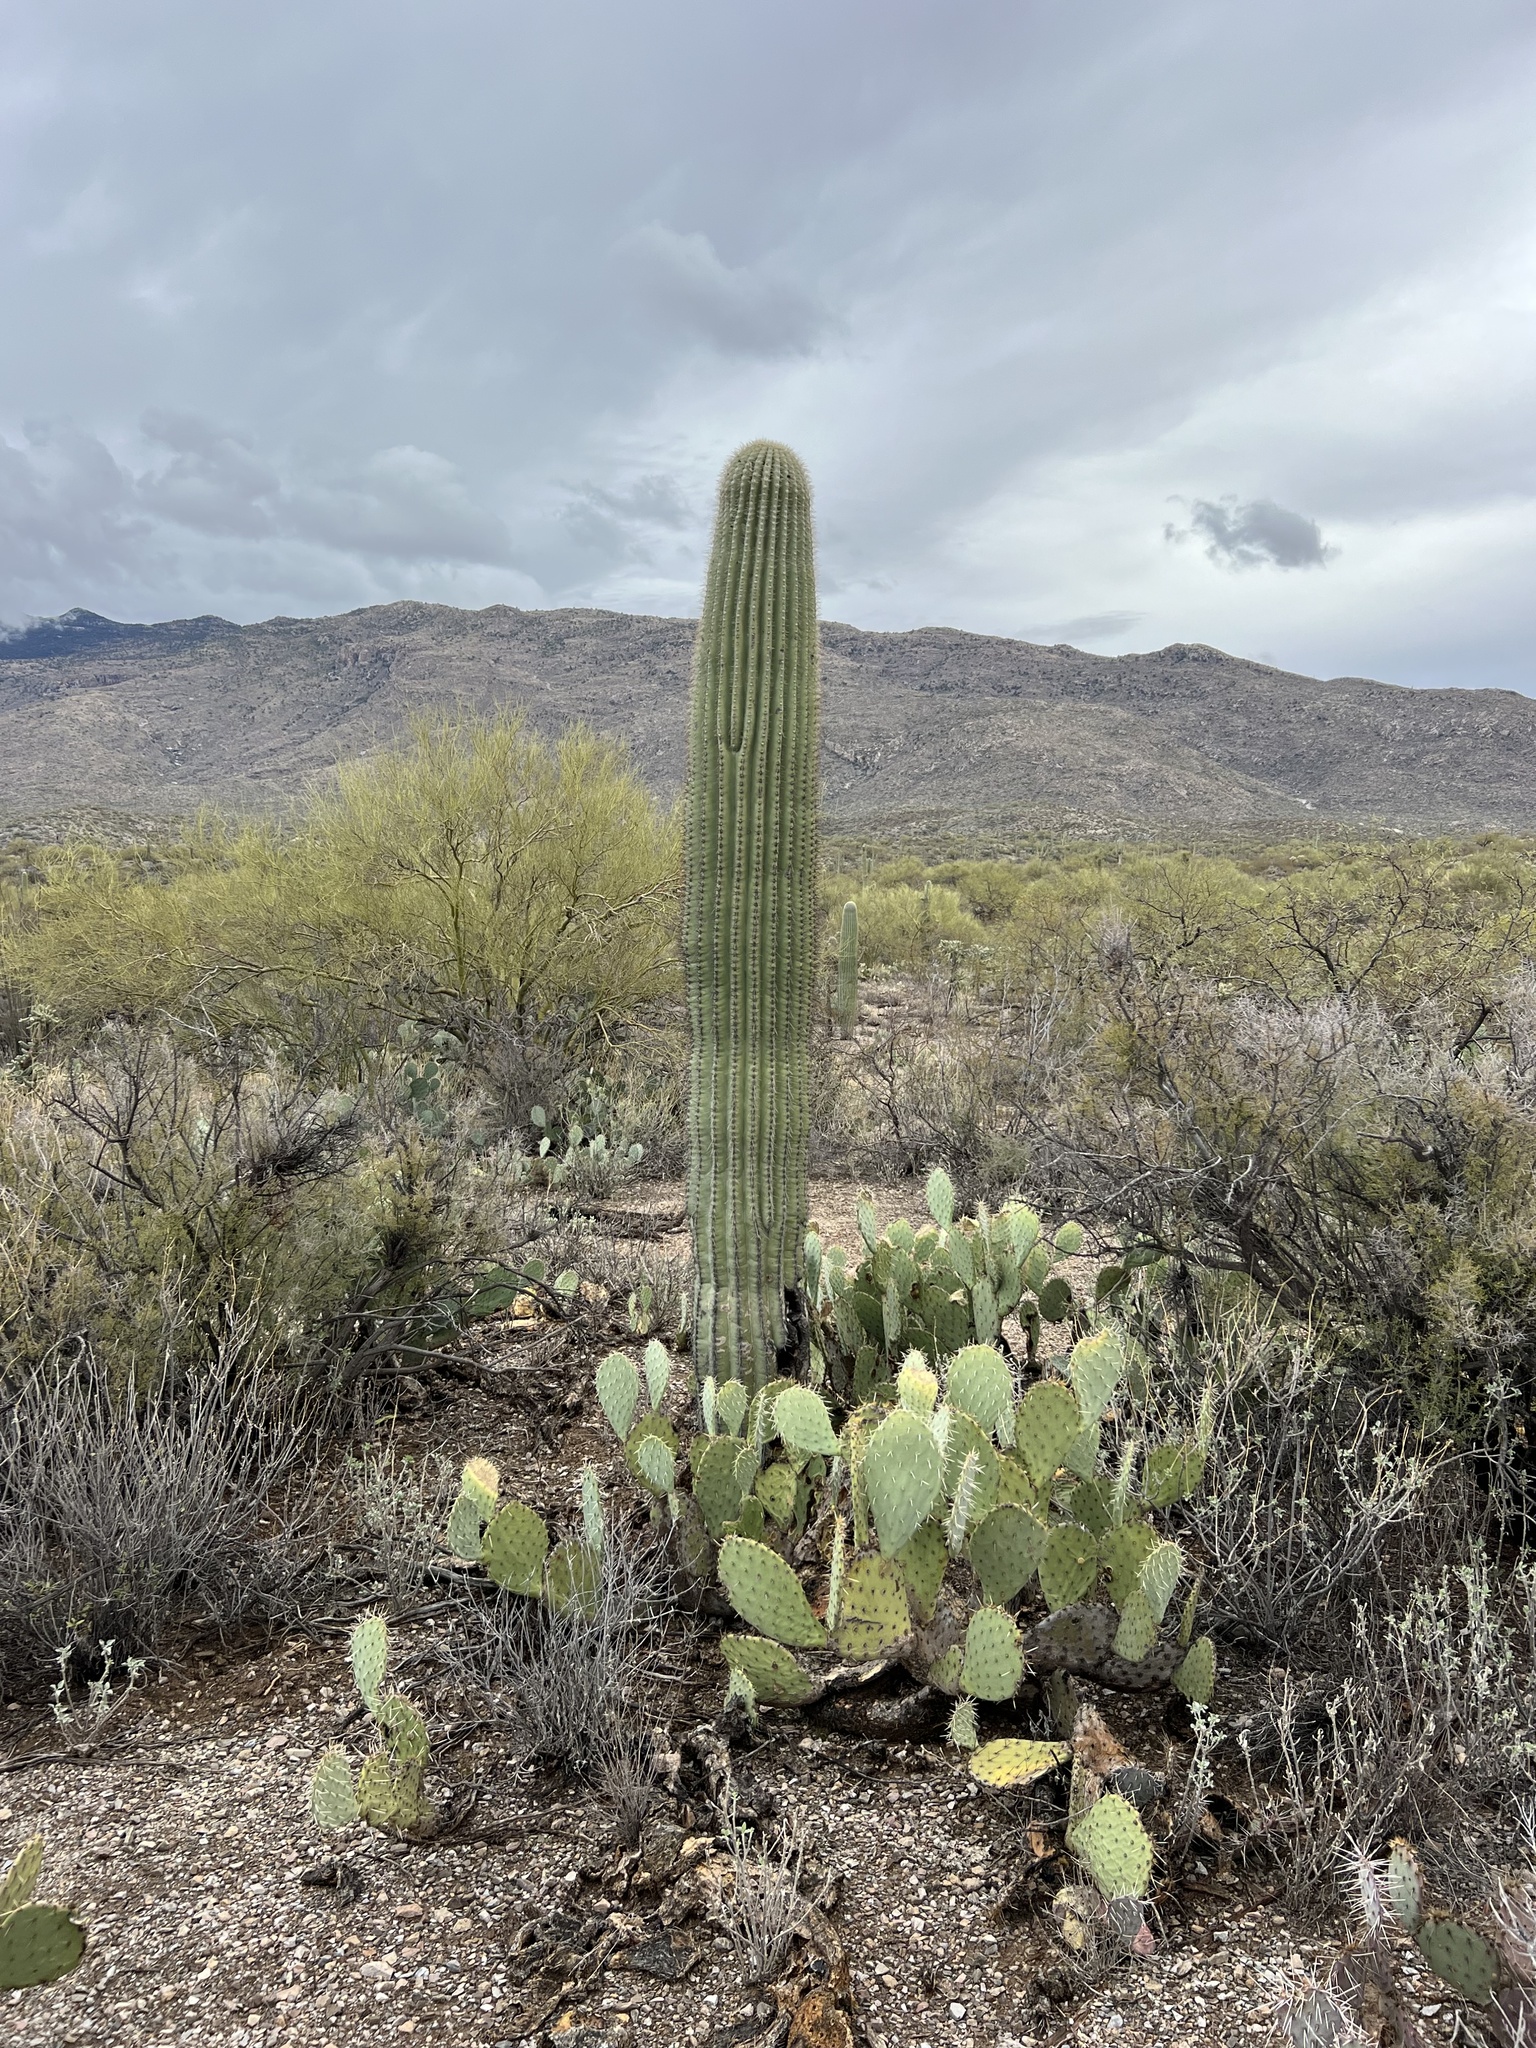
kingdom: Plantae
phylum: Tracheophyta
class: Magnoliopsida
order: Caryophyllales
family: Cactaceae
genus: Carnegiea
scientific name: Carnegiea gigantea
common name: Saguaro
